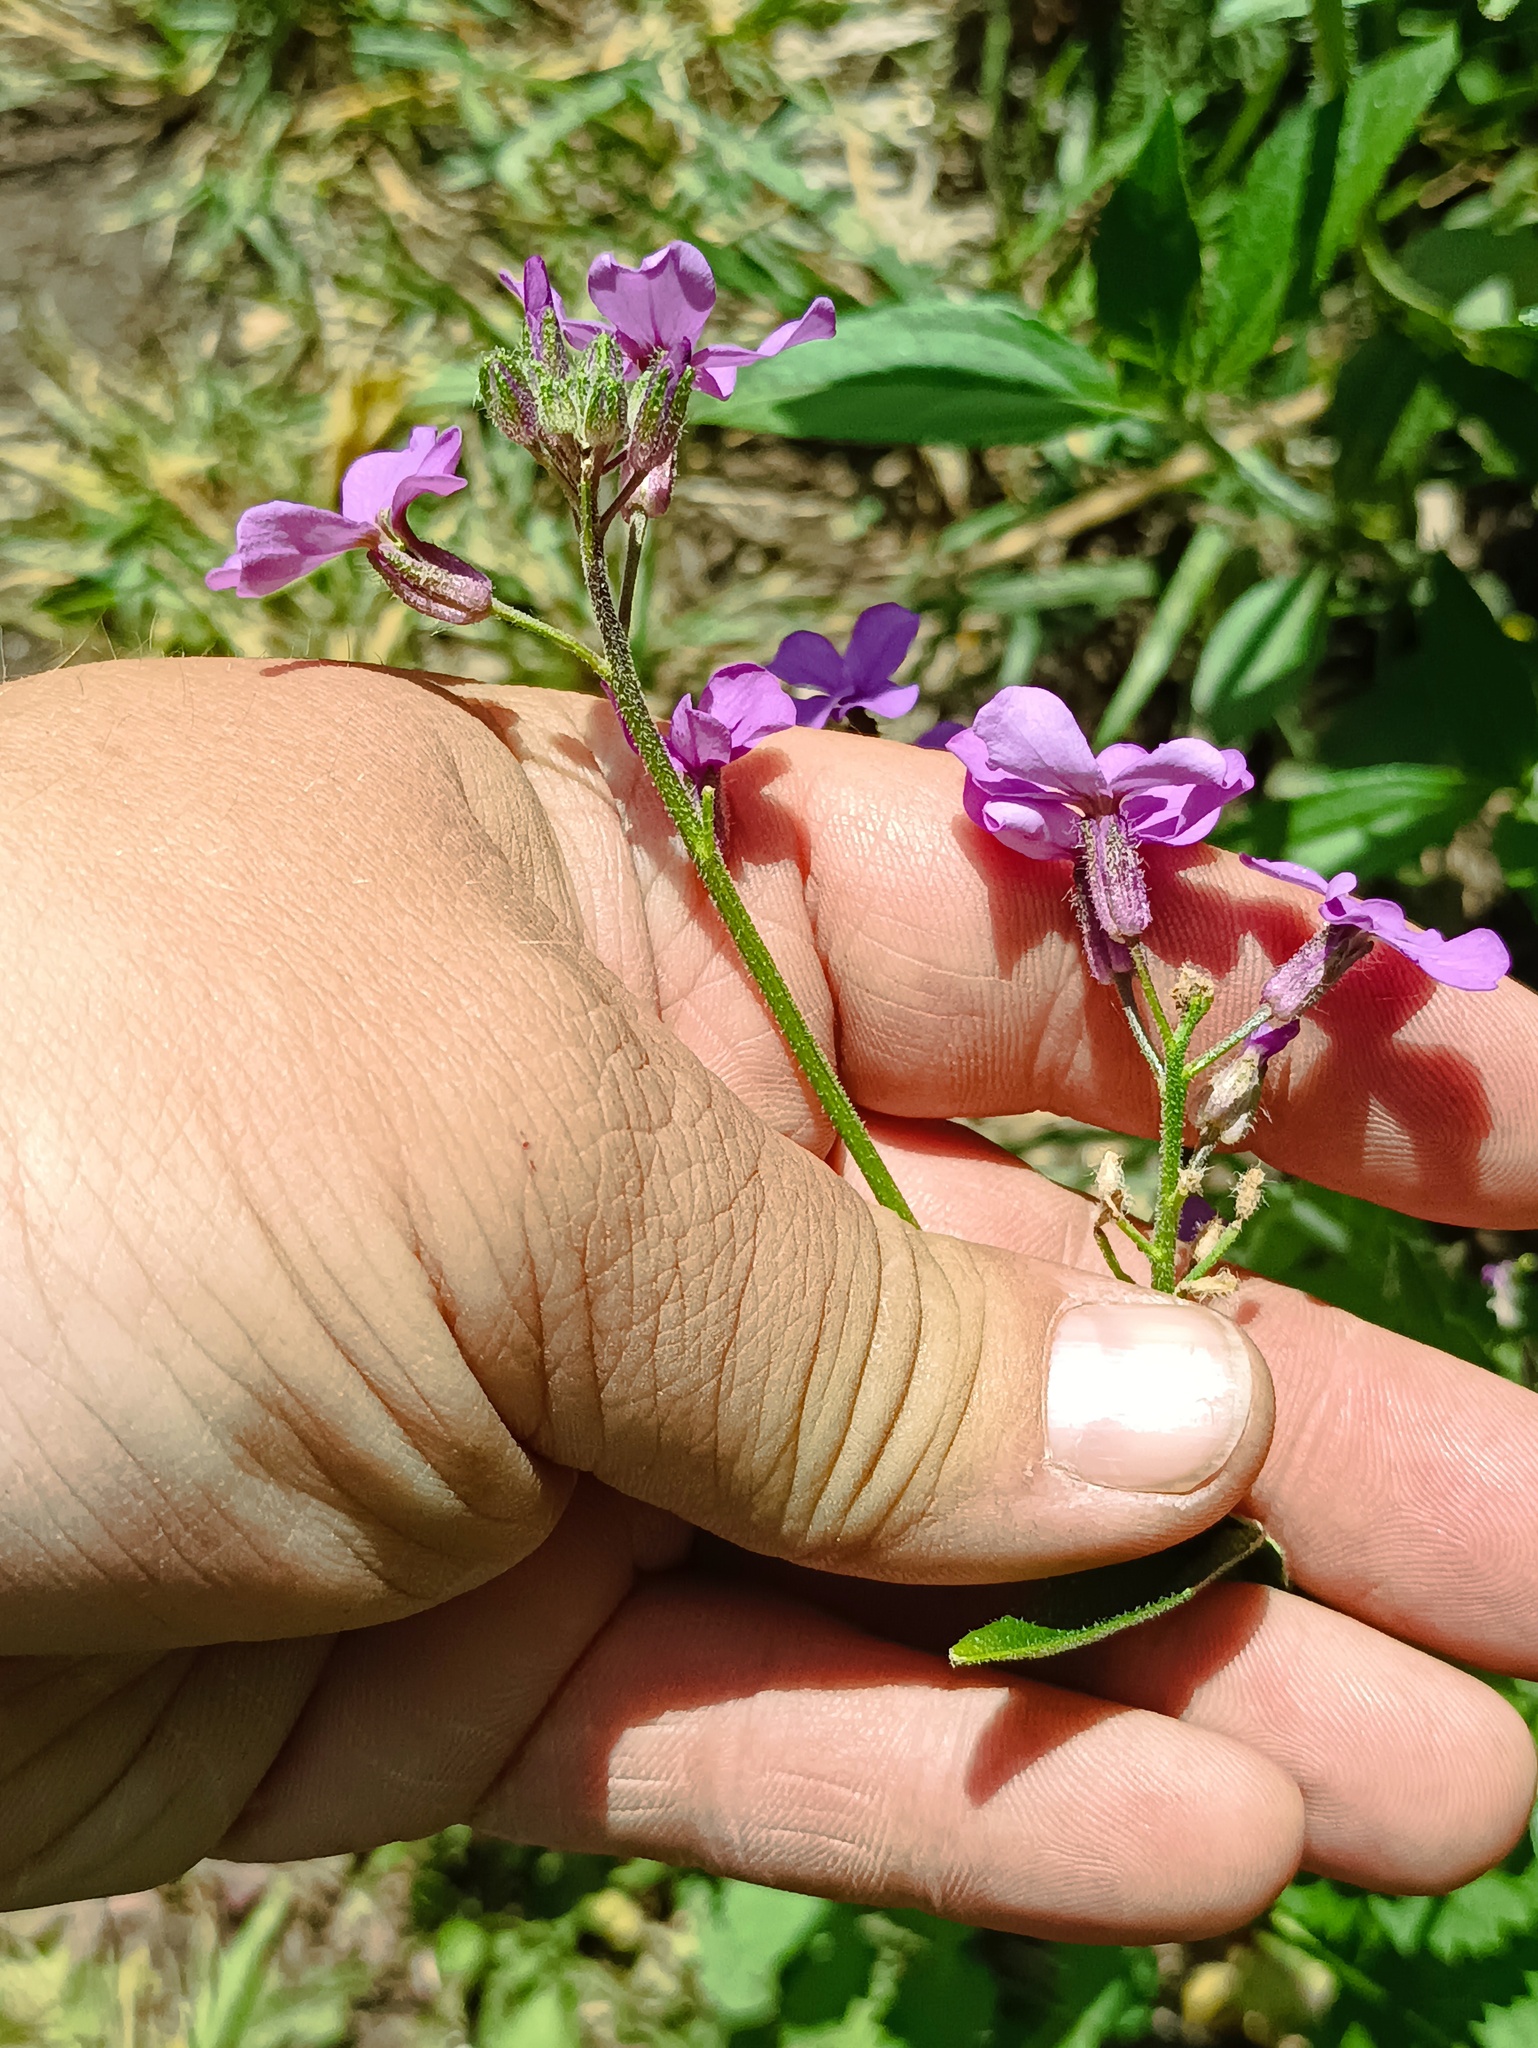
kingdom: Plantae
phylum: Tracheophyta
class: Magnoliopsida
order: Brassicales
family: Brassicaceae
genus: Hesperis
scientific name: Hesperis matronalis
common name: Dame's-violet
